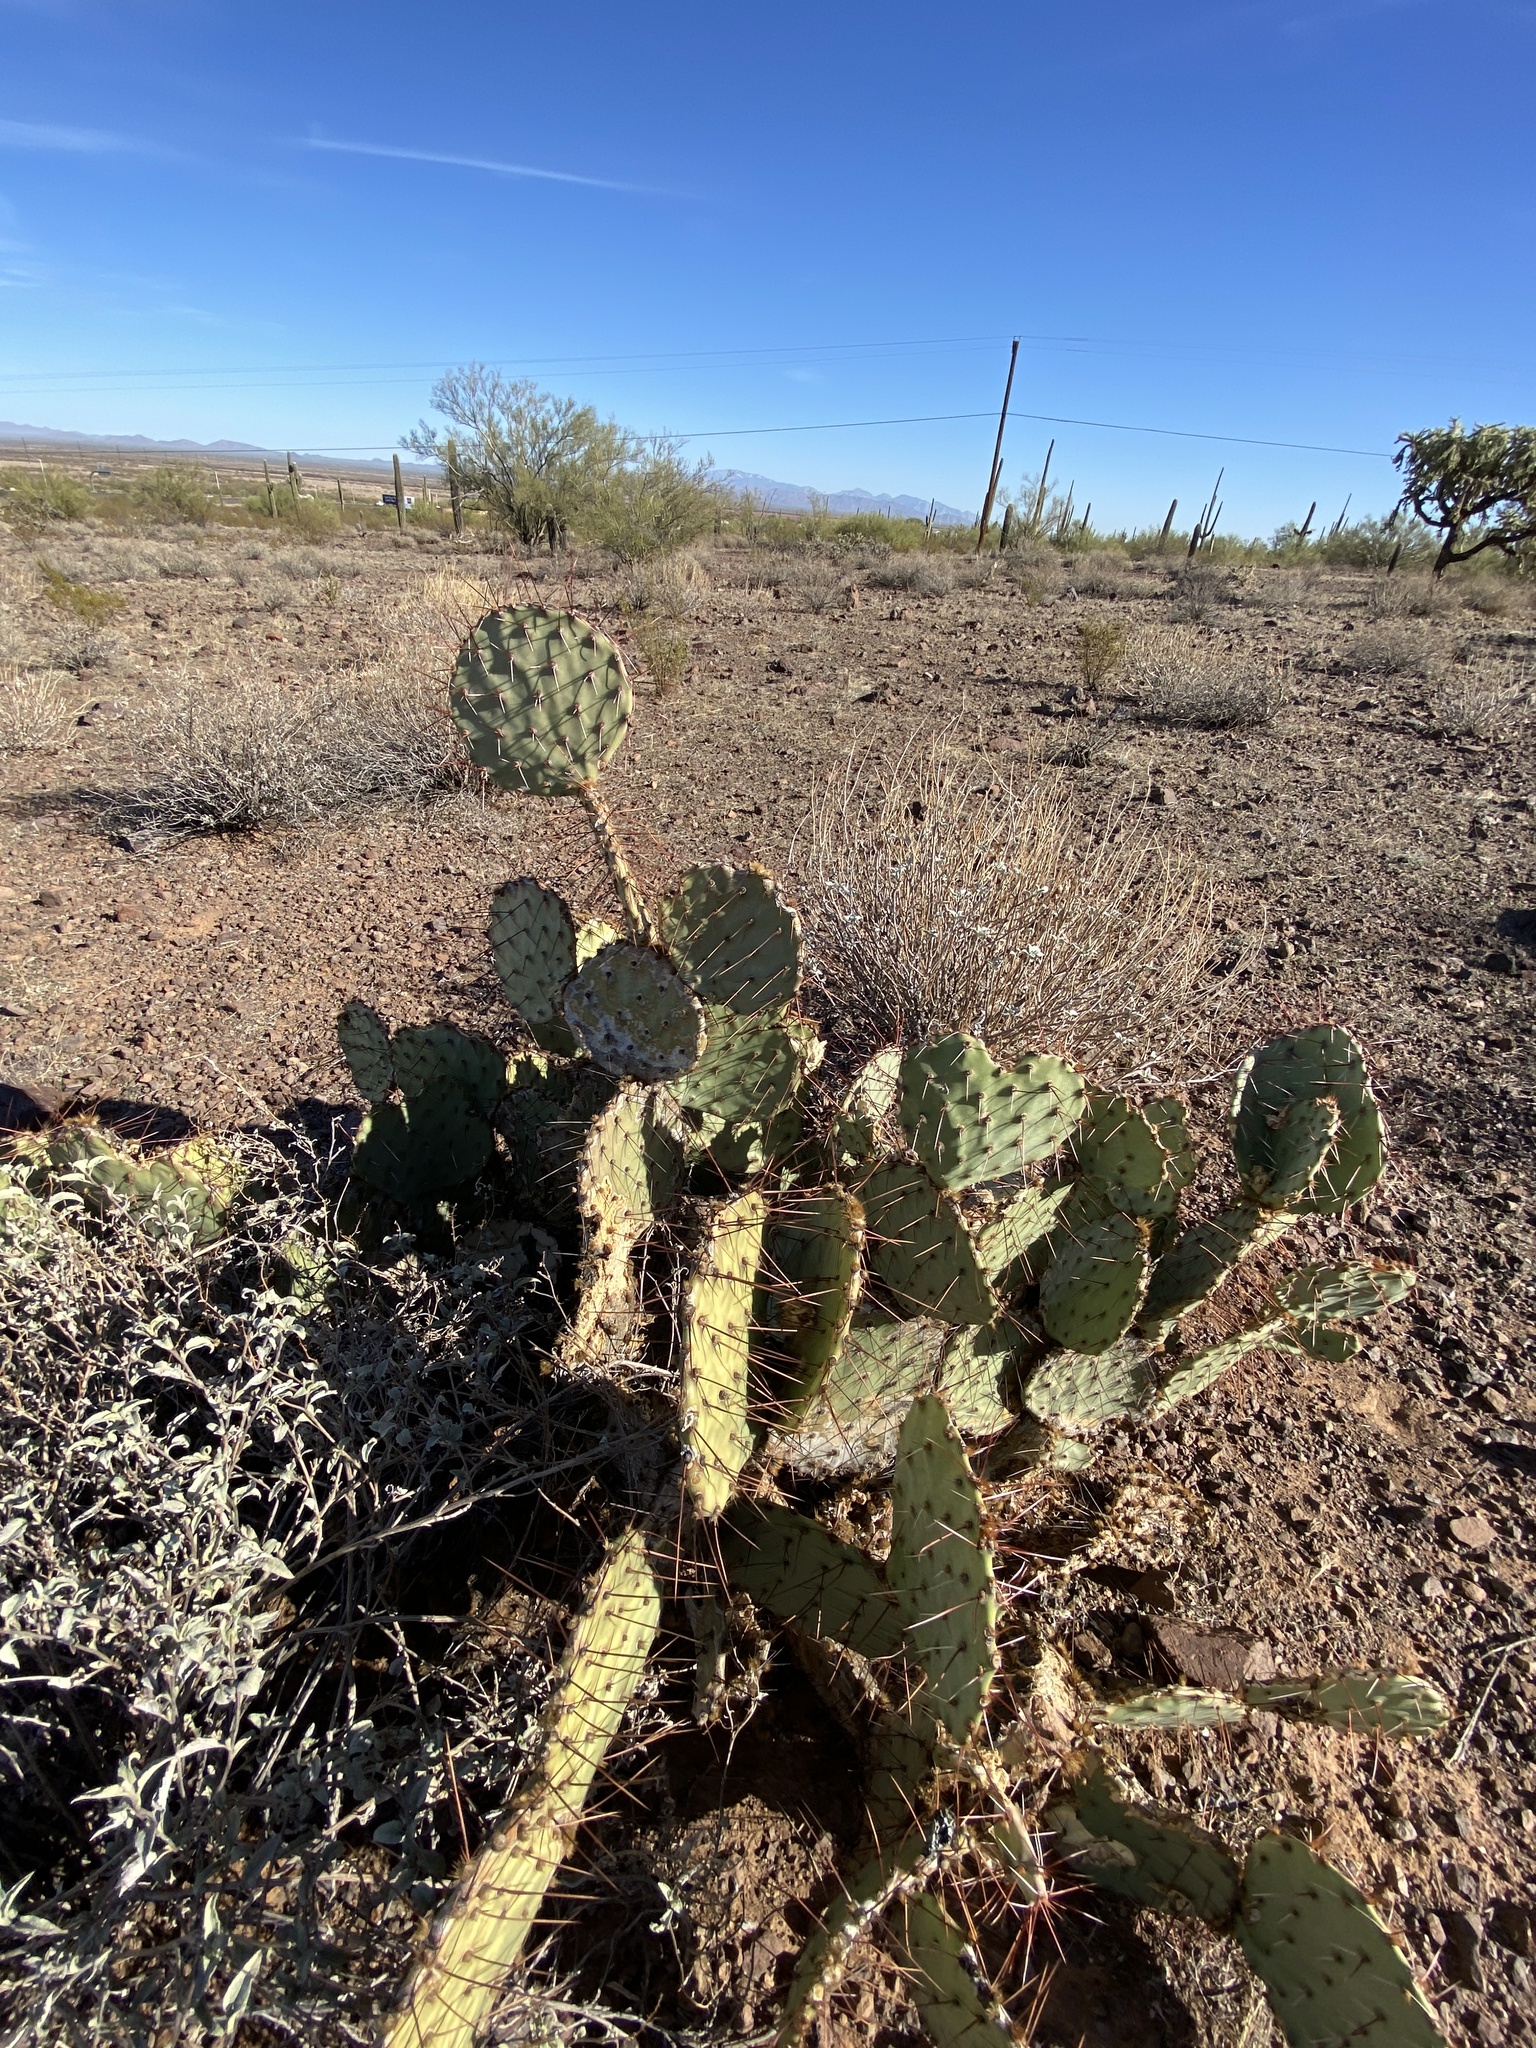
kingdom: Plantae
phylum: Tracheophyta
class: Magnoliopsida
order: Caryophyllales
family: Cactaceae
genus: Opuntia
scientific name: Opuntia engelmannii
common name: Cactus-apple
